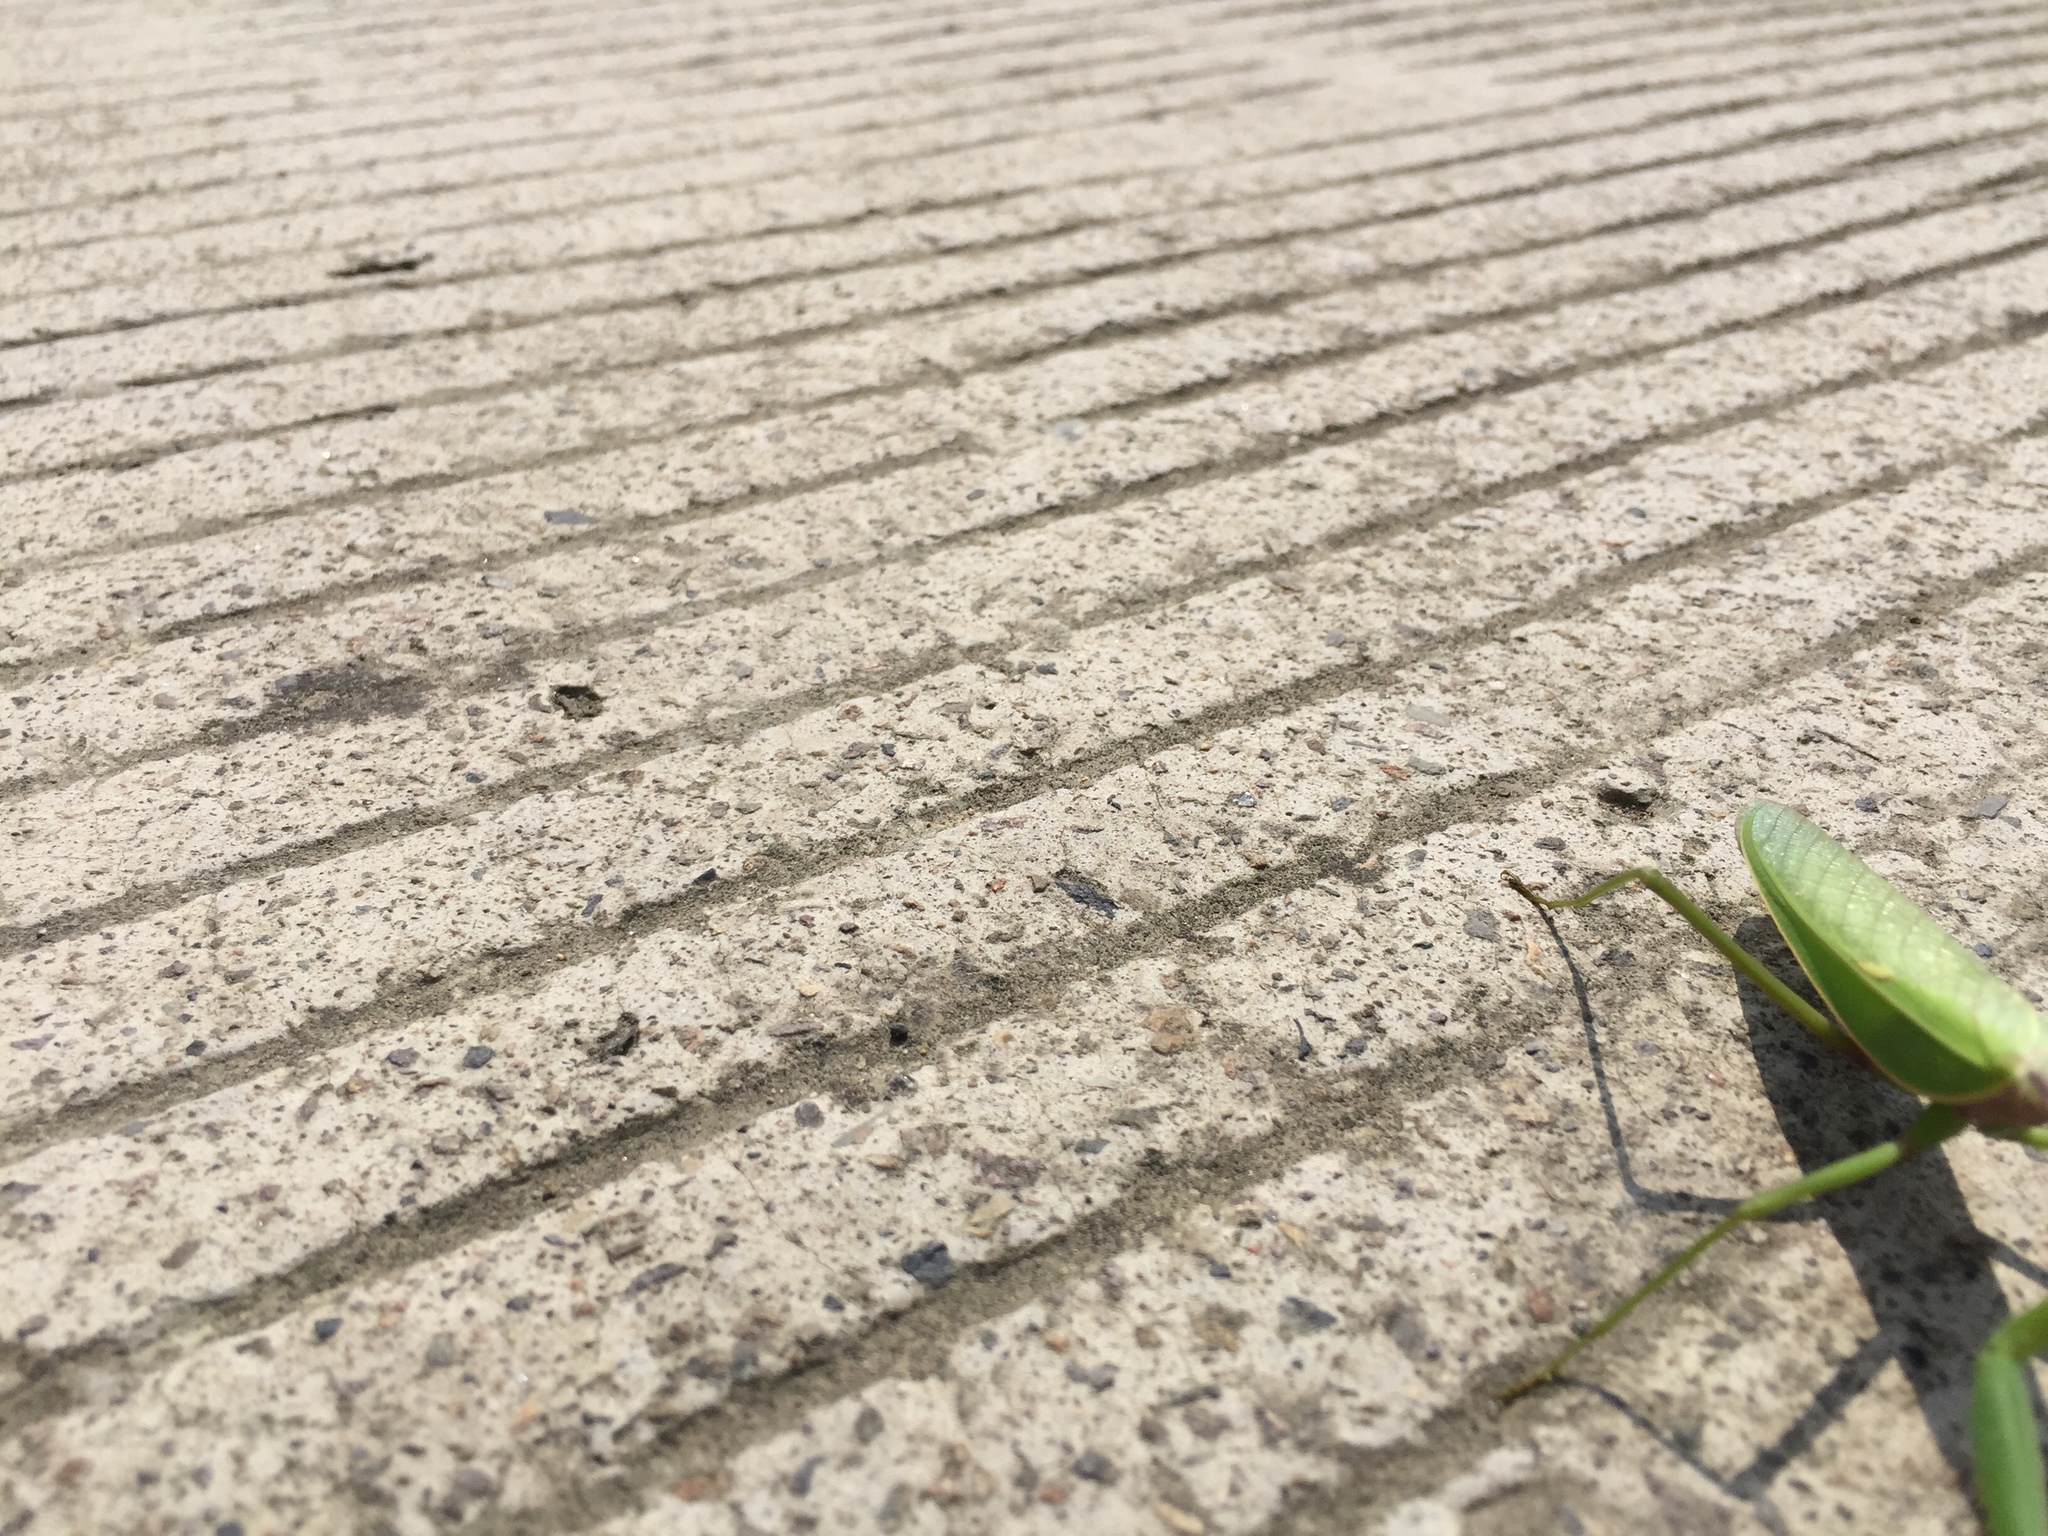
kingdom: Animalia
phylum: Arthropoda
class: Insecta
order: Mantodea
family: Mantidae
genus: Hierodula
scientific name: Hierodula chinensis
